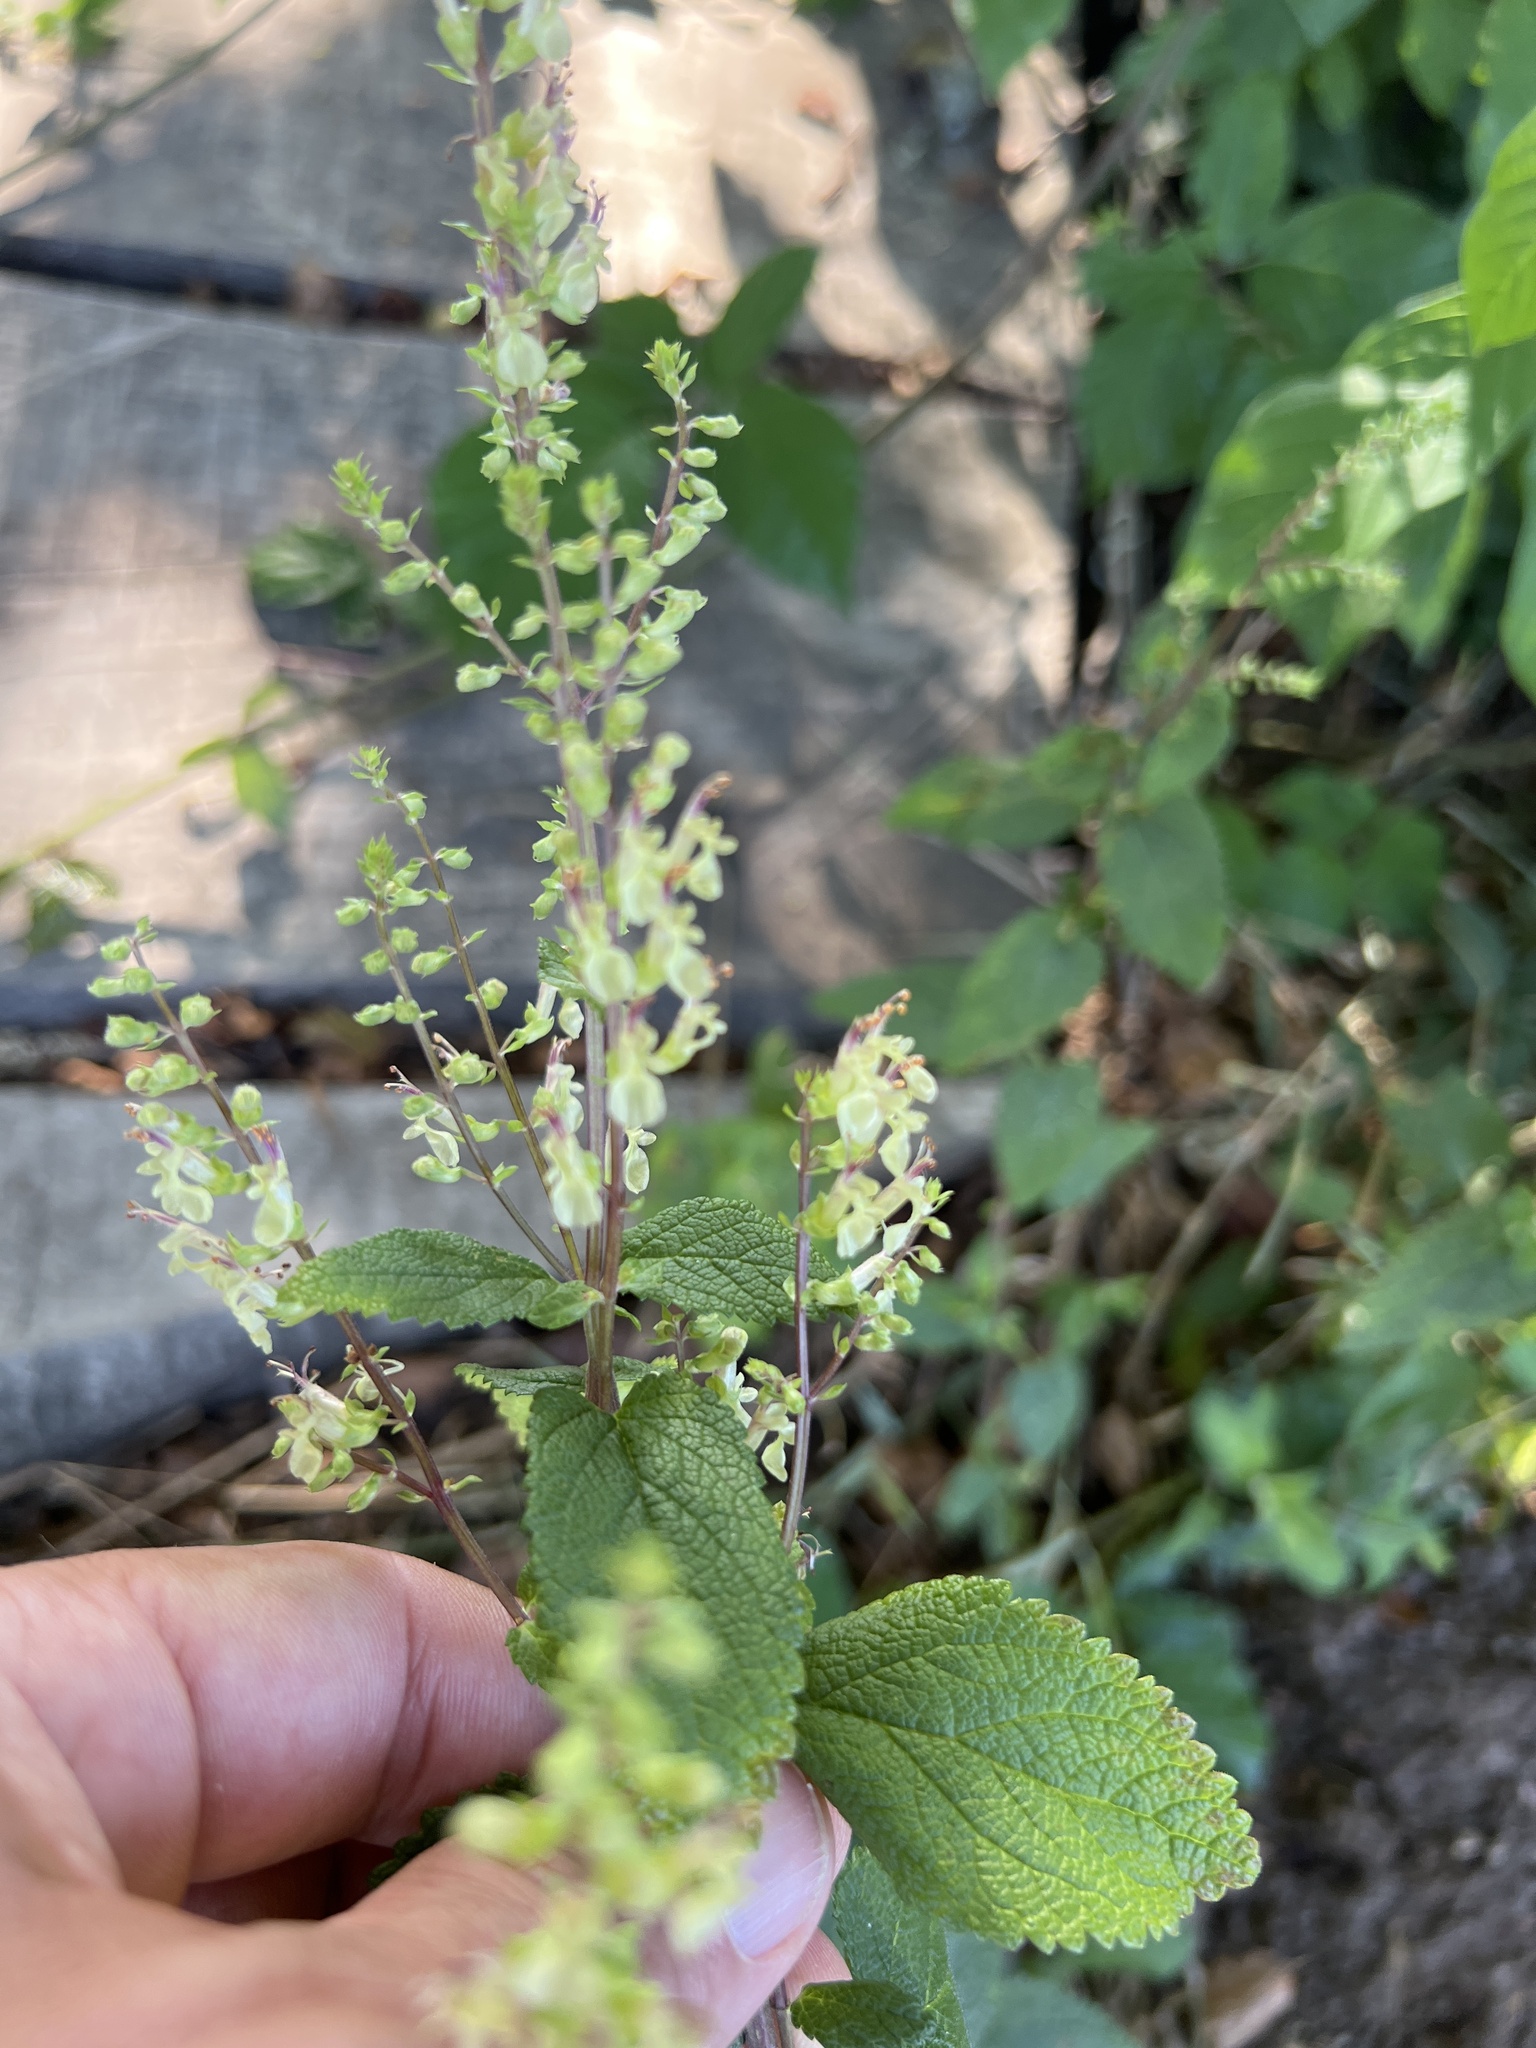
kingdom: Plantae
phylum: Tracheophyta
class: Magnoliopsida
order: Lamiales
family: Lamiaceae
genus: Teucrium
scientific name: Teucrium scorodonia
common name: Woodland germander
